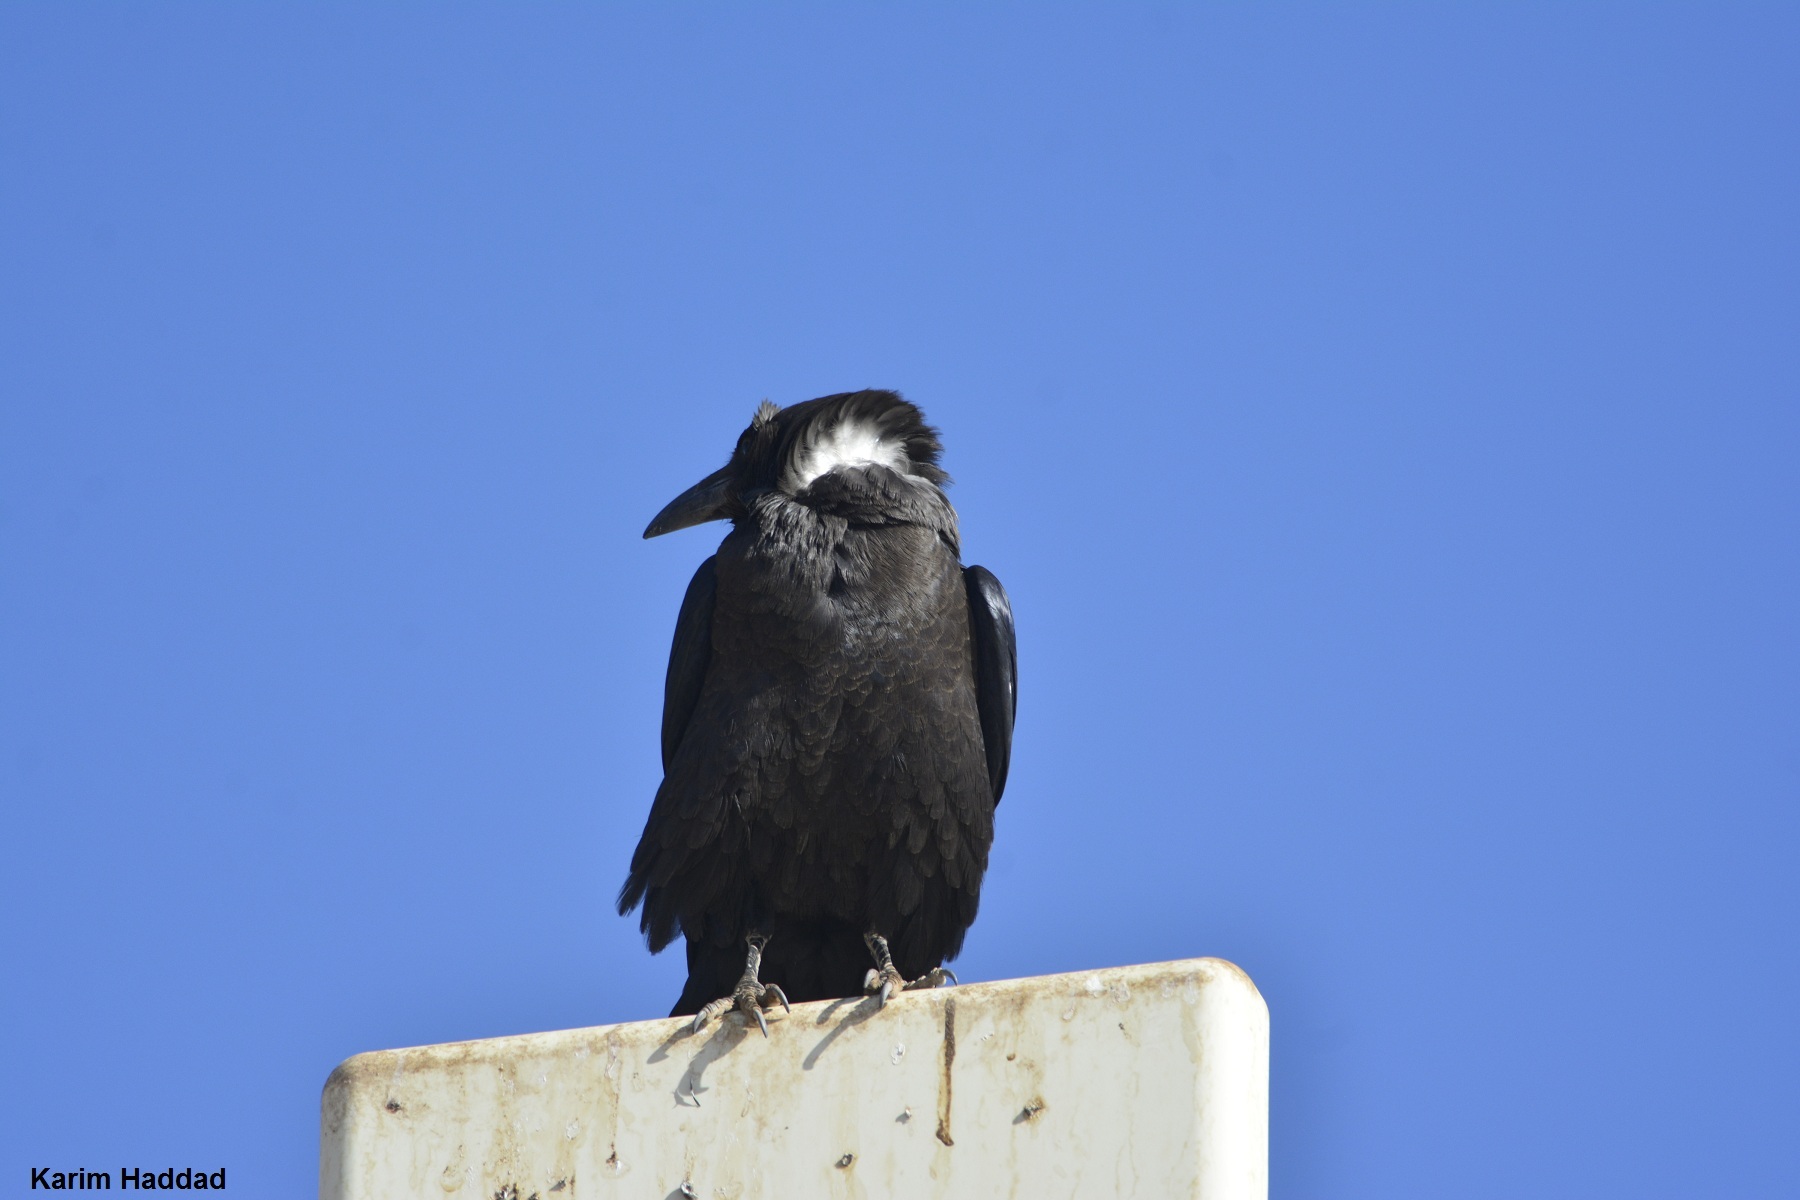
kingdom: Animalia
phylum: Chordata
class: Aves
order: Passeriformes
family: Corvidae
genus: Corvus
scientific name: Corvus ruficollis
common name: Brown-necked raven
